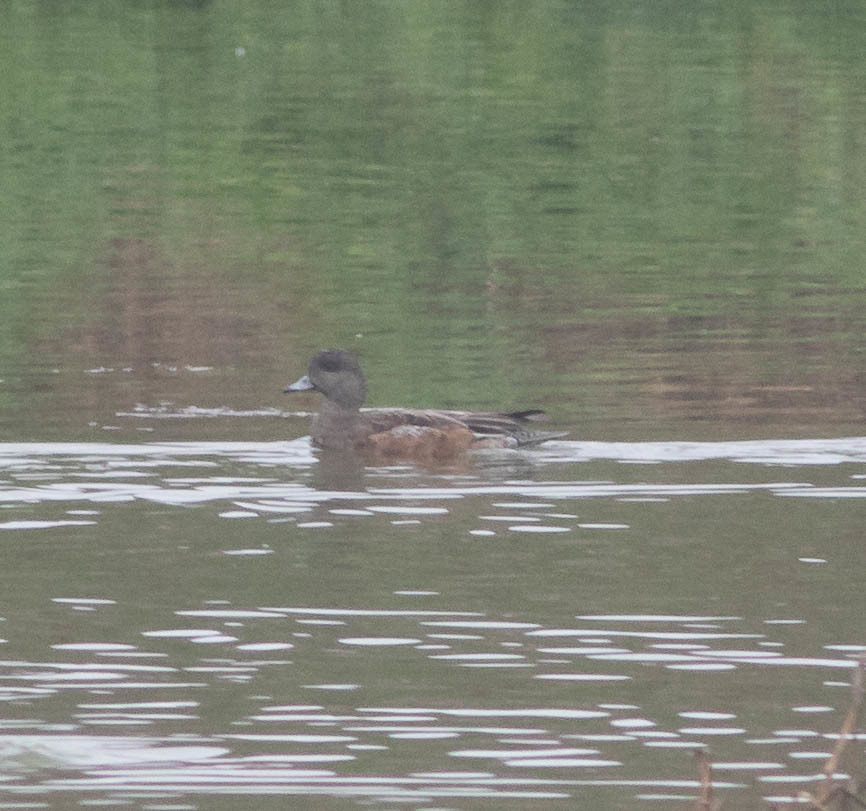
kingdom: Animalia
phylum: Chordata
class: Aves
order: Anseriformes
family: Anatidae
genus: Mareca
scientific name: Mareca americana
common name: American wigeon
